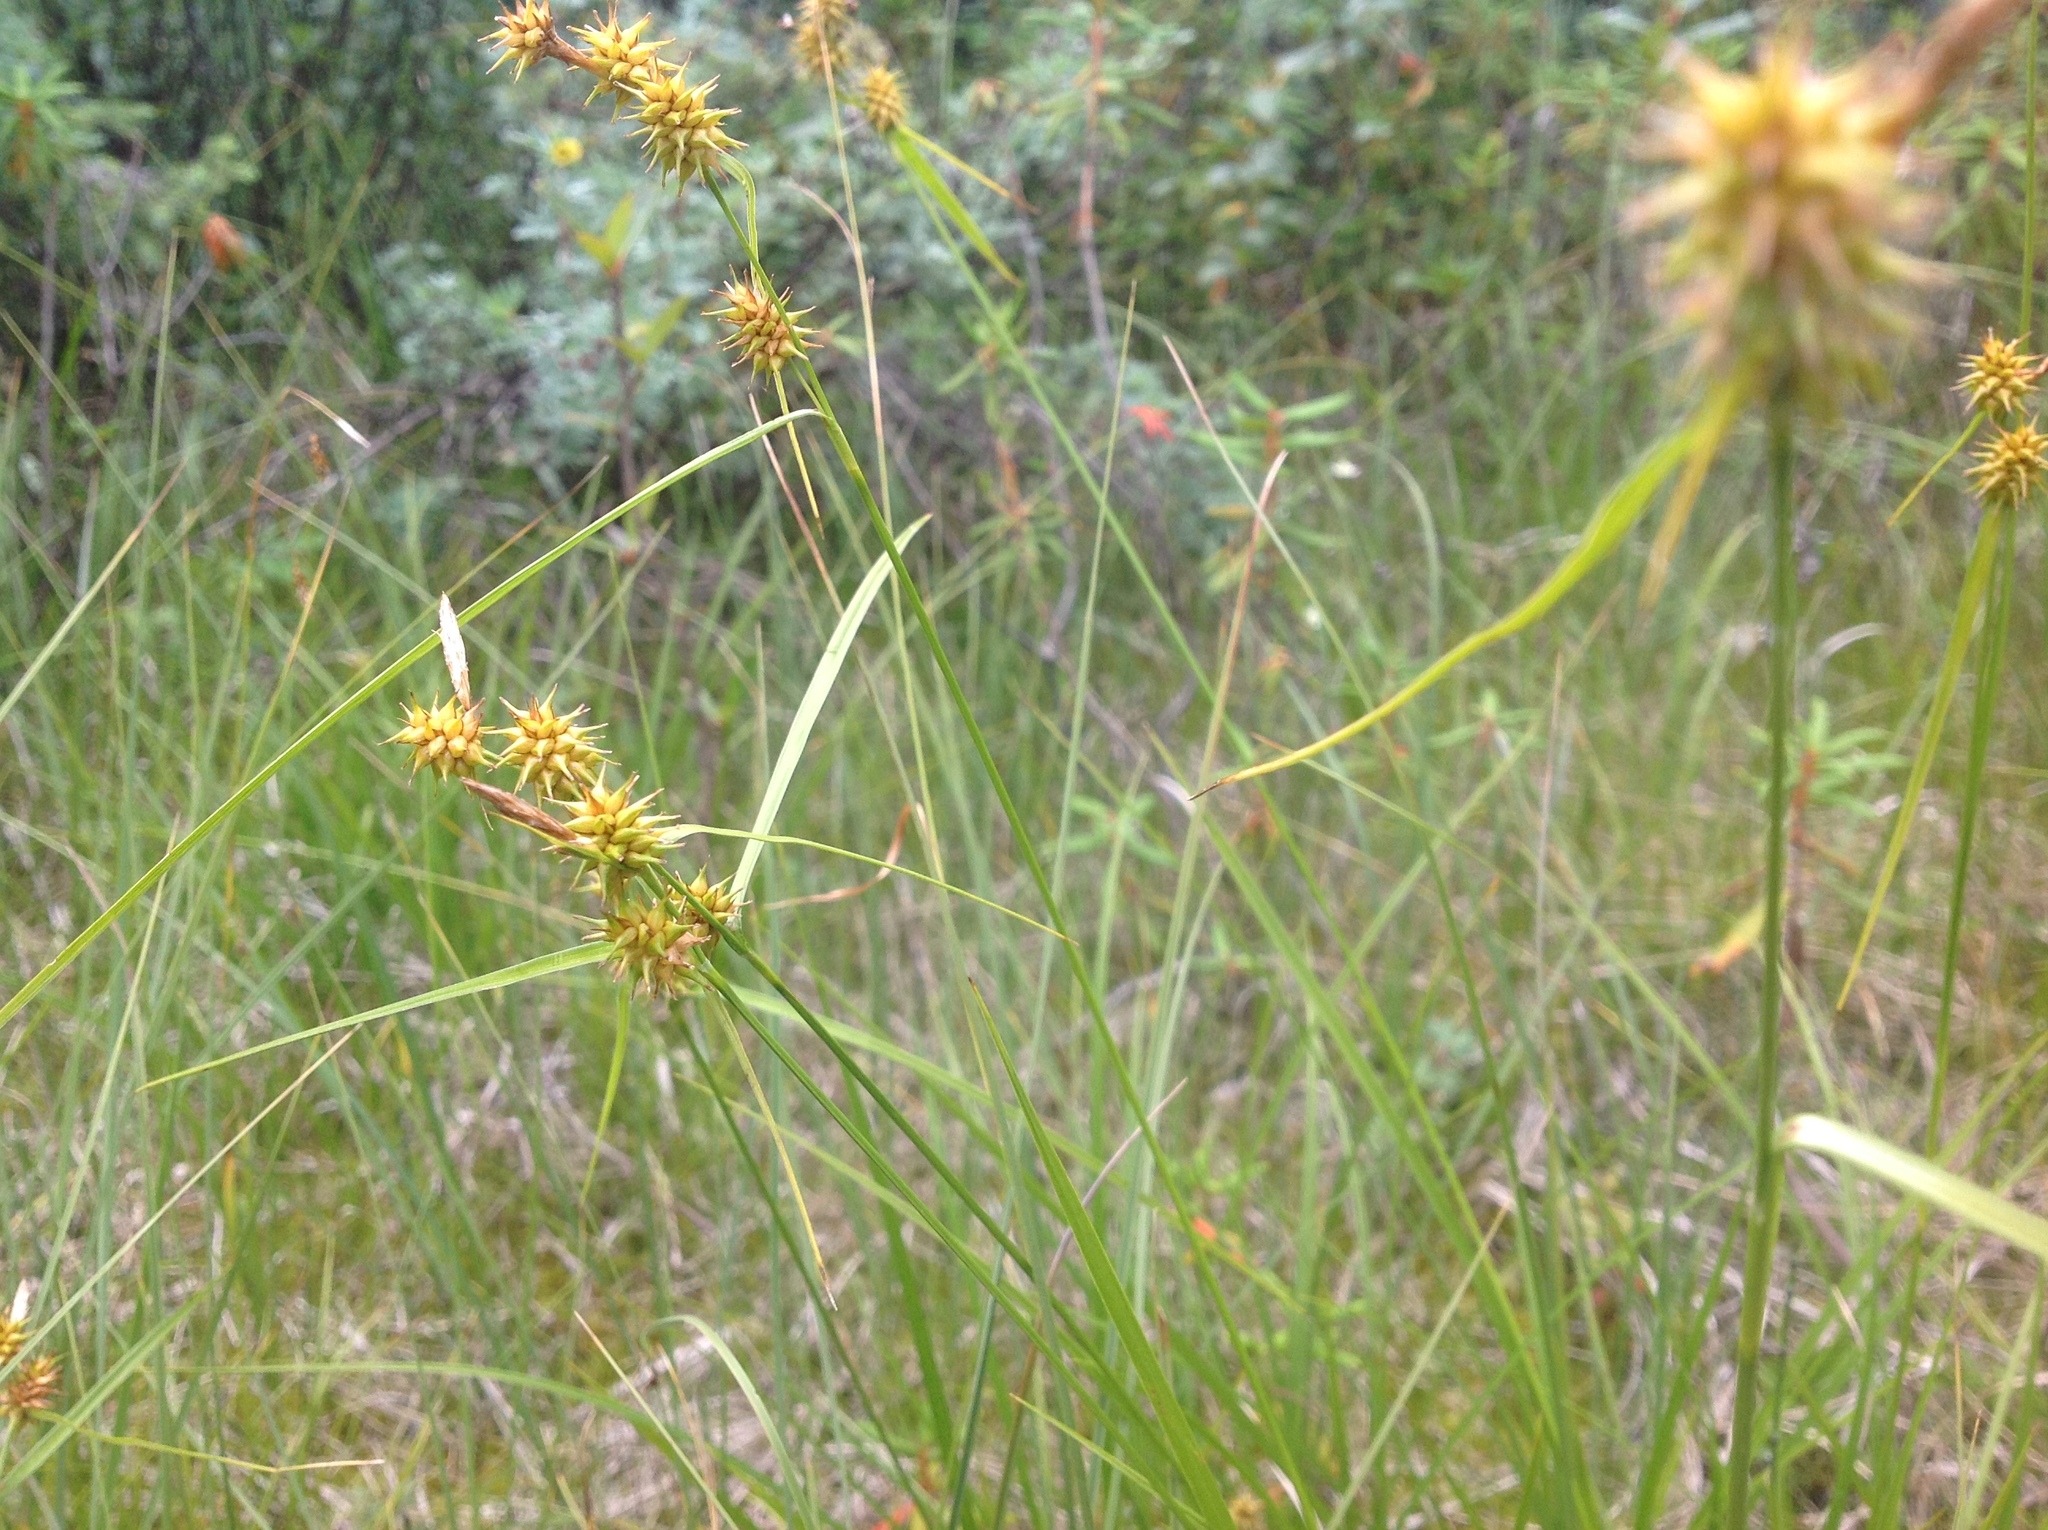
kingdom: Plantae
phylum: Tracheophyta
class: Liliopsida
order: Poales
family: Cyperaceae
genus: Carex
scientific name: Carex flava
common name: Large yellow-sedge
